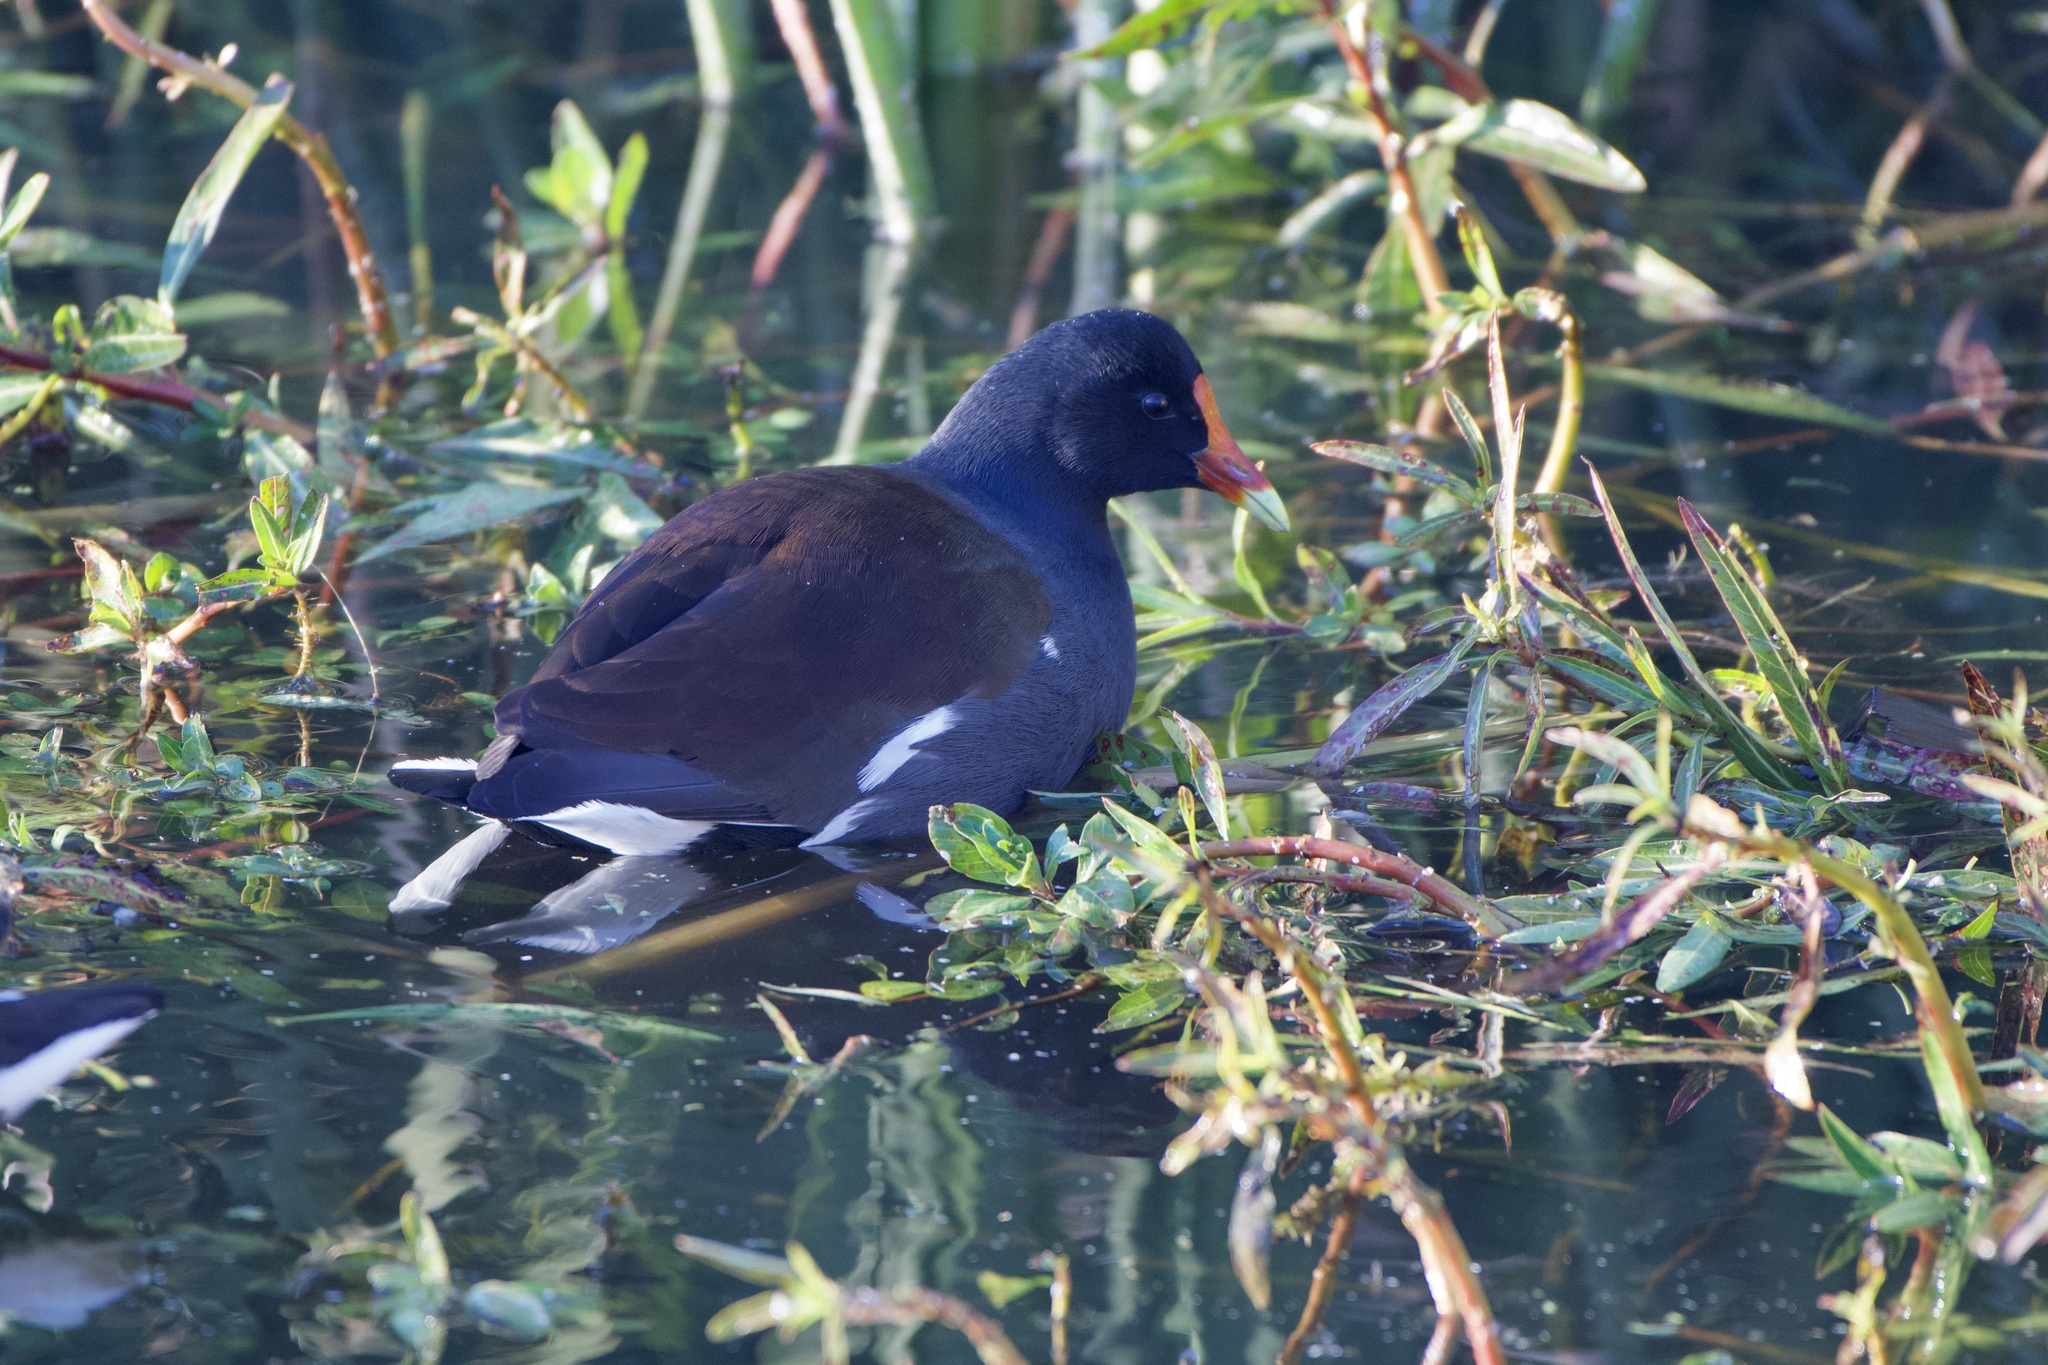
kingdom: Animalia
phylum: Chordata
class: Aves
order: Gruiformes
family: Rallidae
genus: Gallinula
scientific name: Gallinula chloropus
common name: Common moorhen
